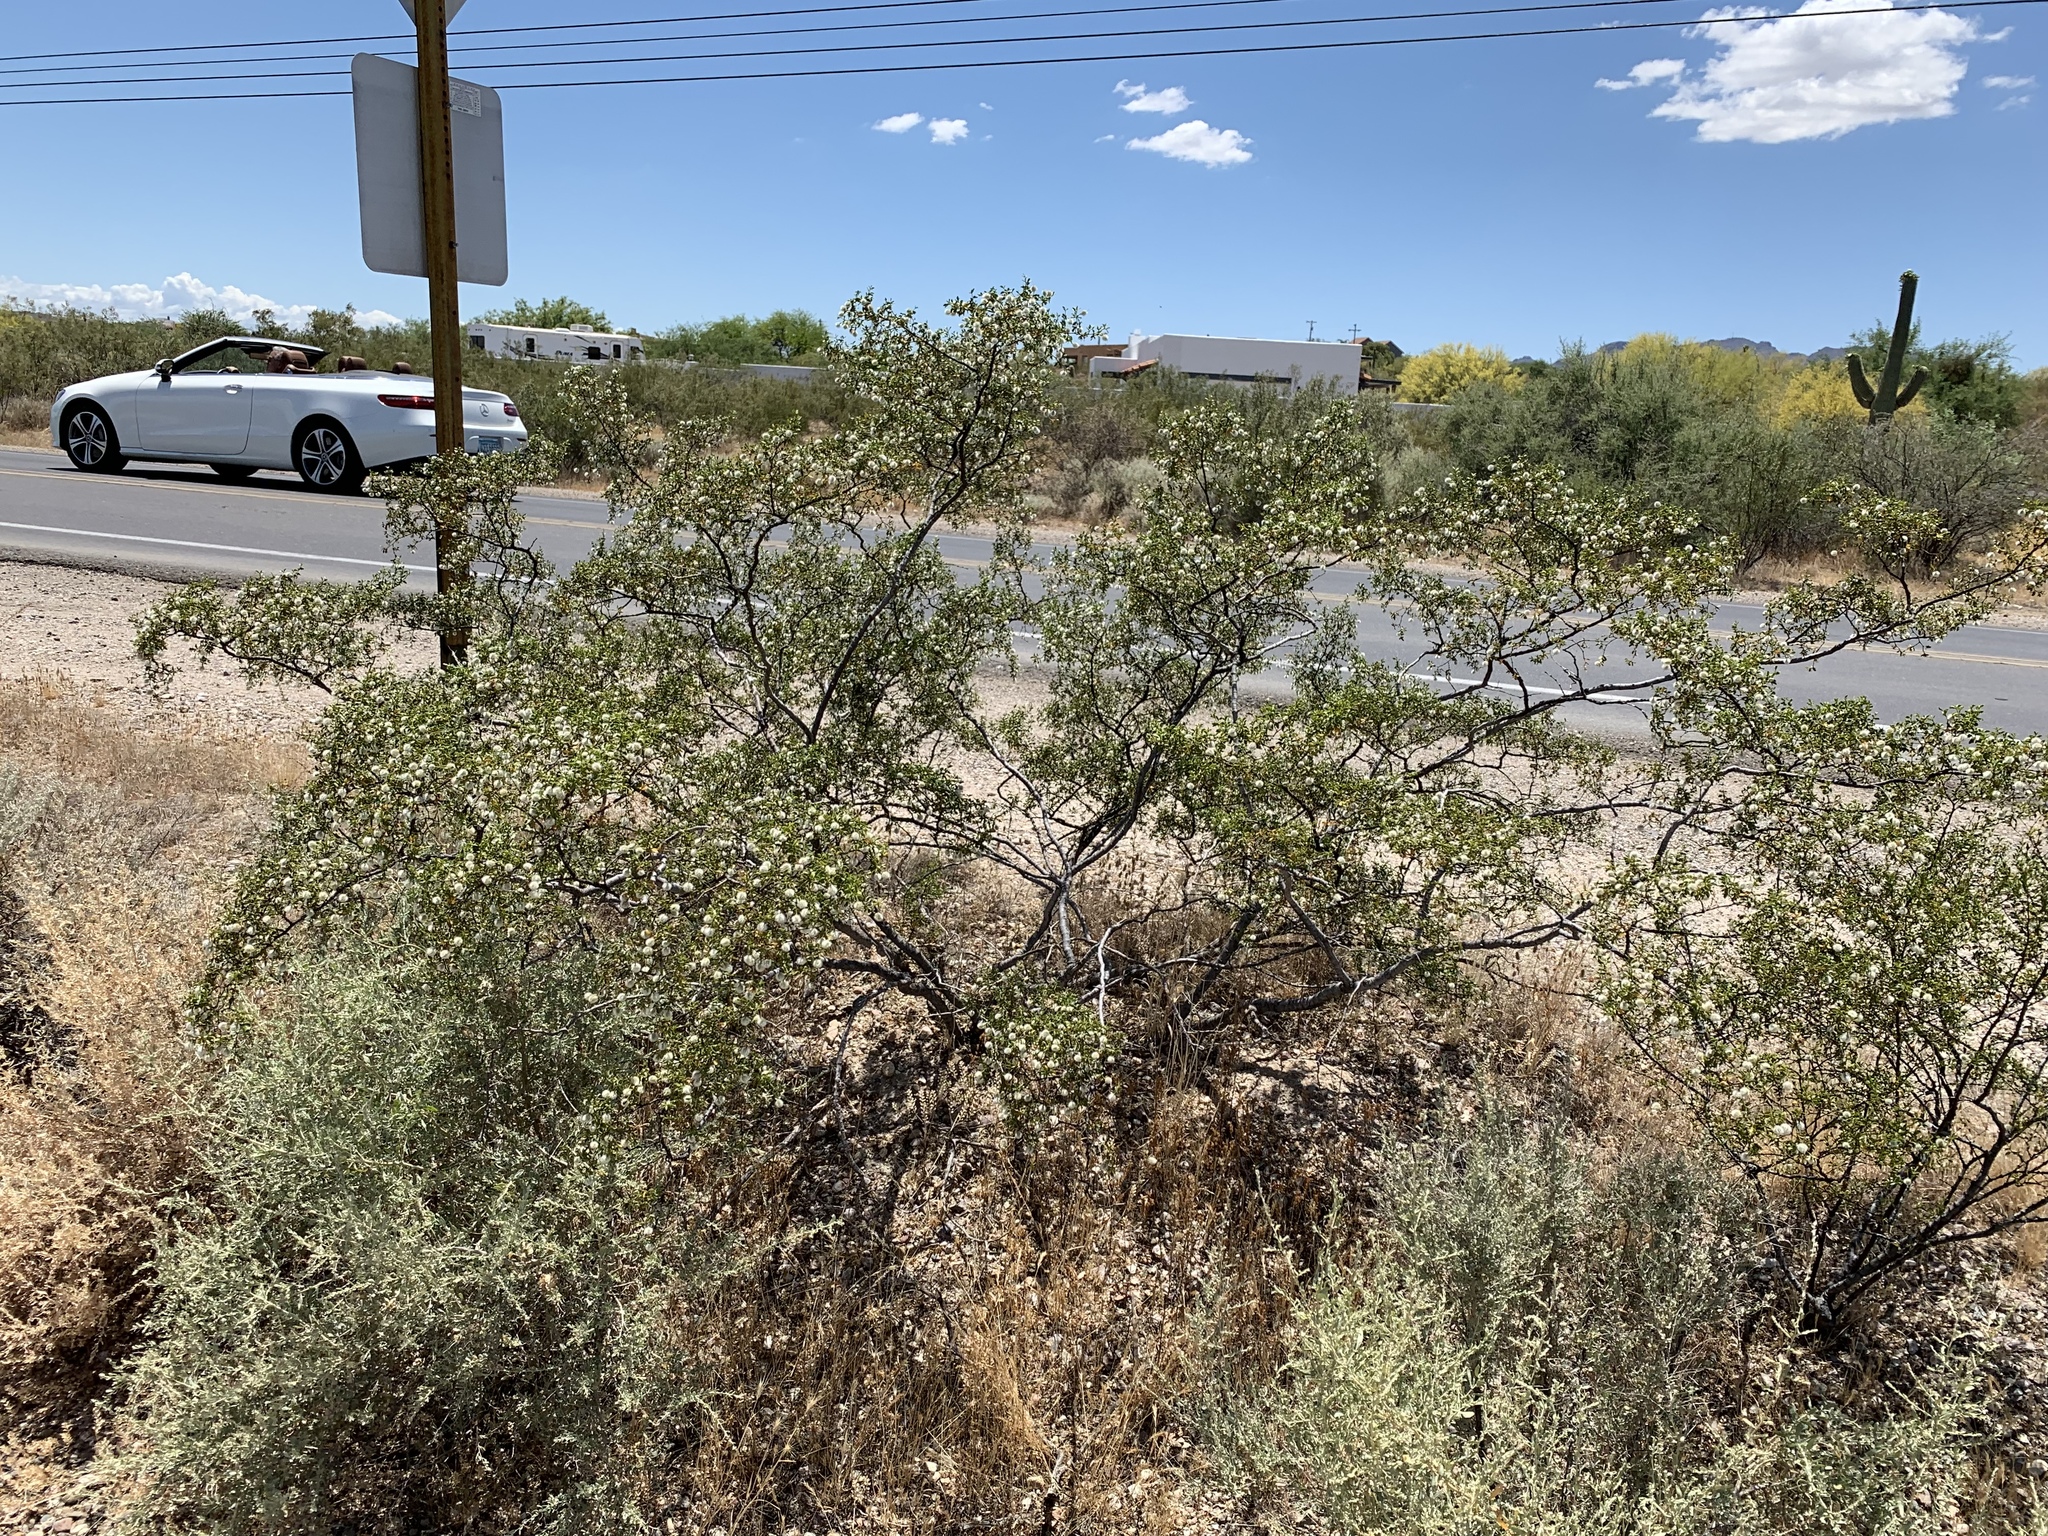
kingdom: Plantae
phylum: Tracheophyta
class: Magnoliopsida
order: Zygophyllales
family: Zygophyllaceae
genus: Larrea
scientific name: Larrea tridentata
